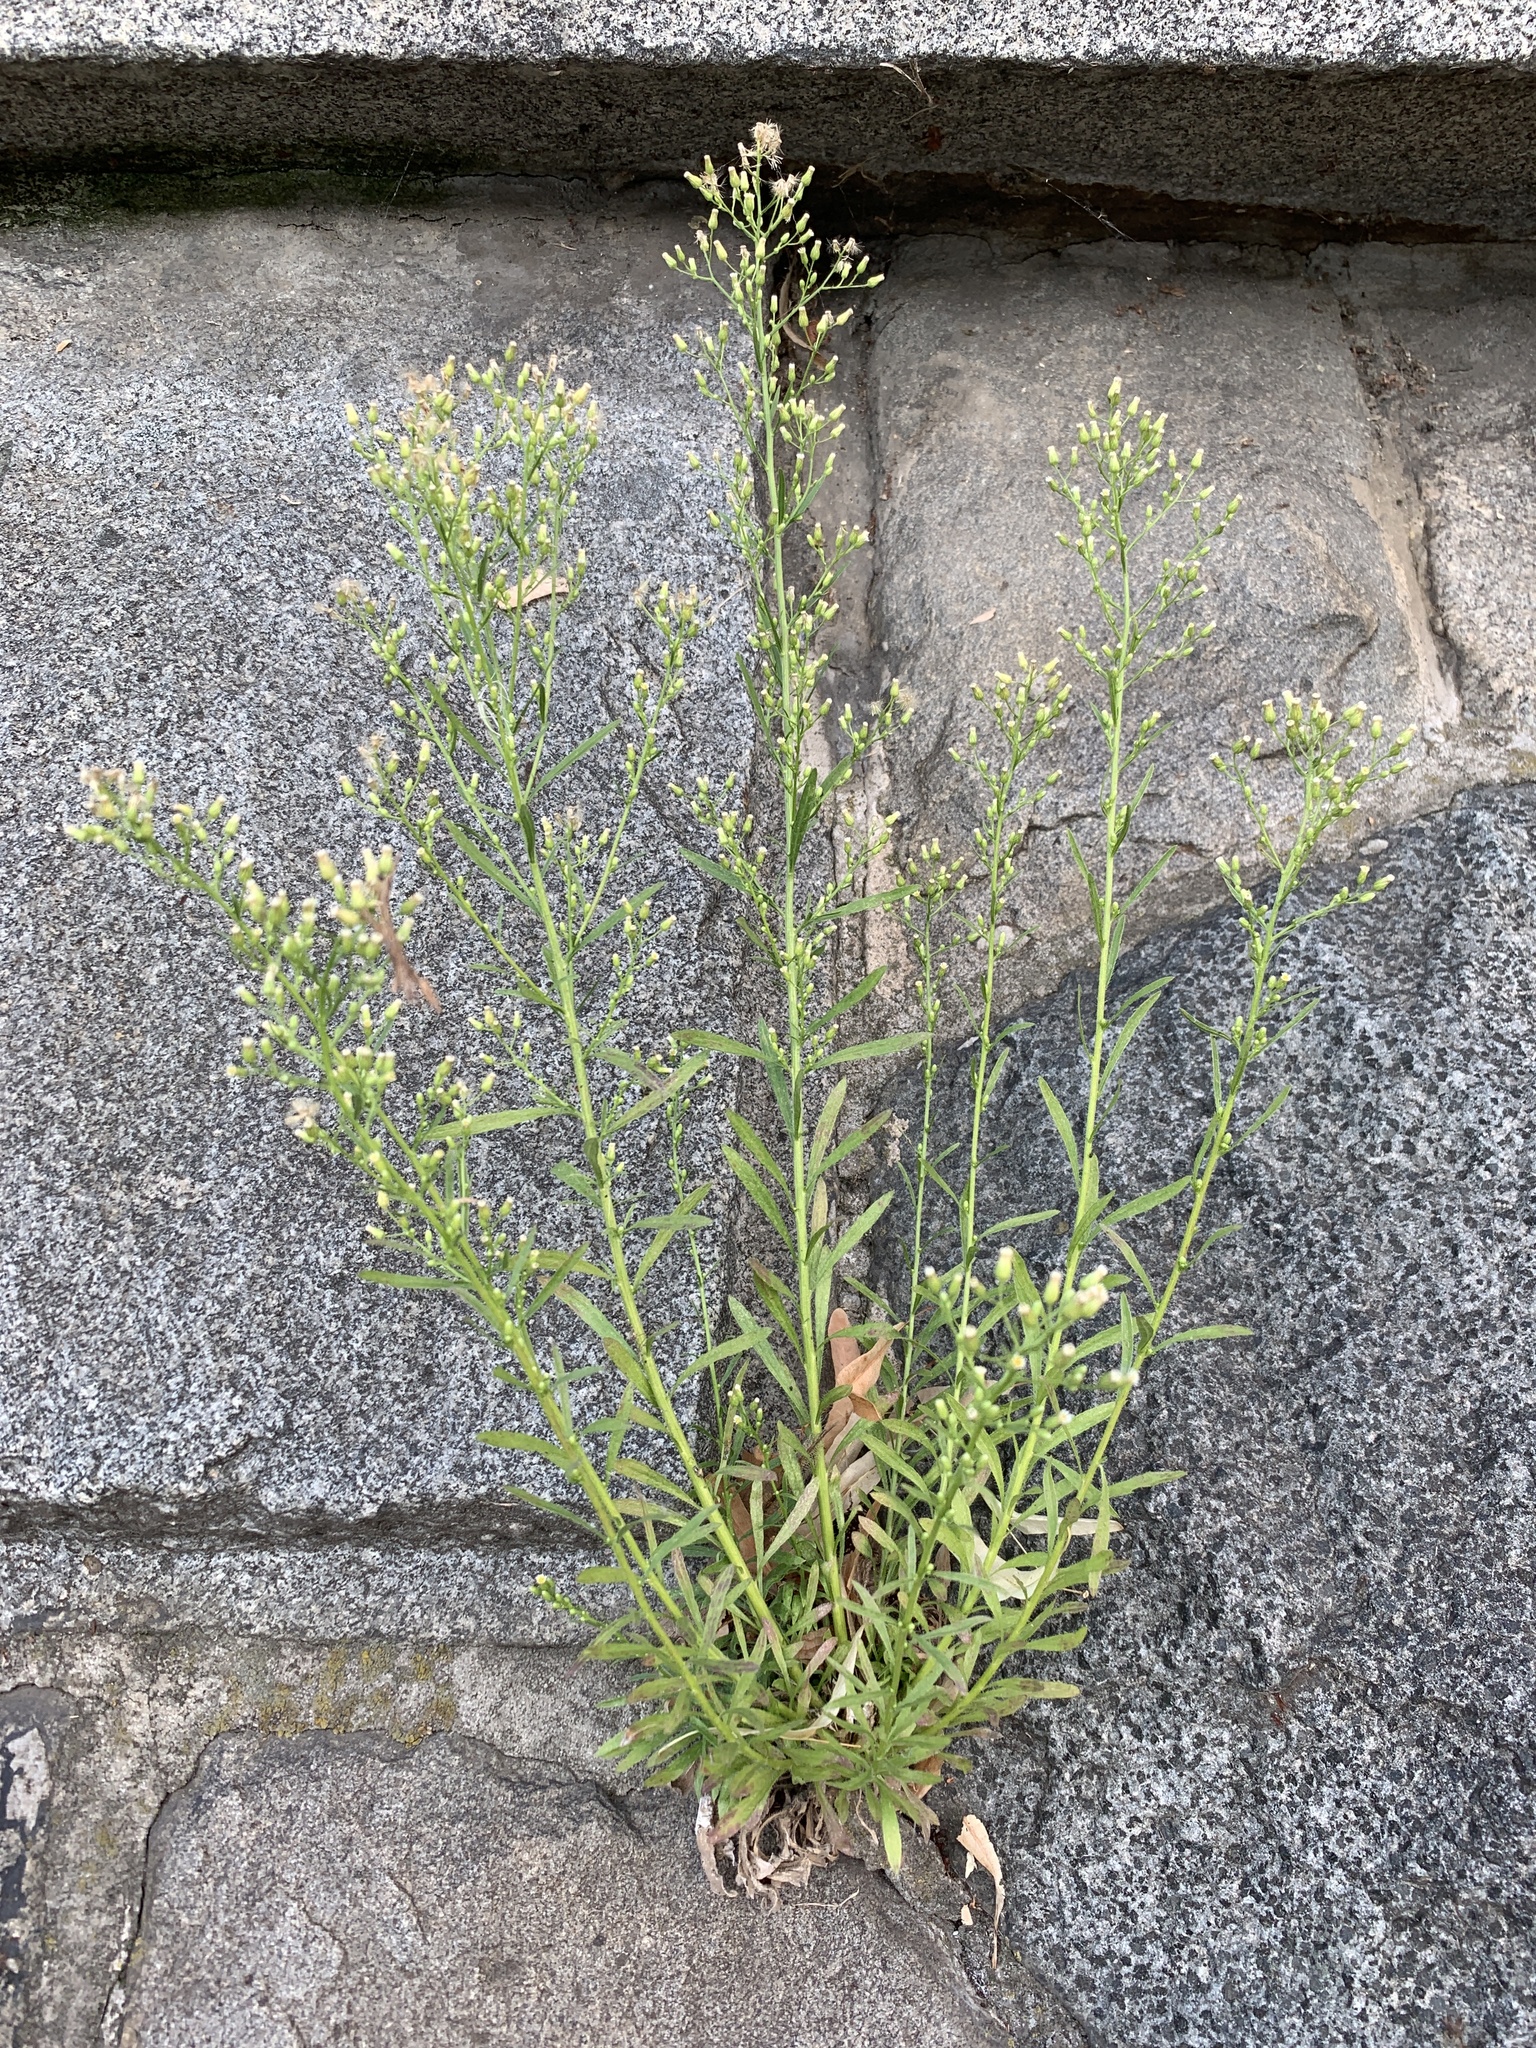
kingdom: Plantae
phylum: Tracheophyta
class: Magnoliopsida
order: Asterales
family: Asteraceae
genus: Erigeron
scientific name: Erigeron canadensis
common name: Canadian fleabane
